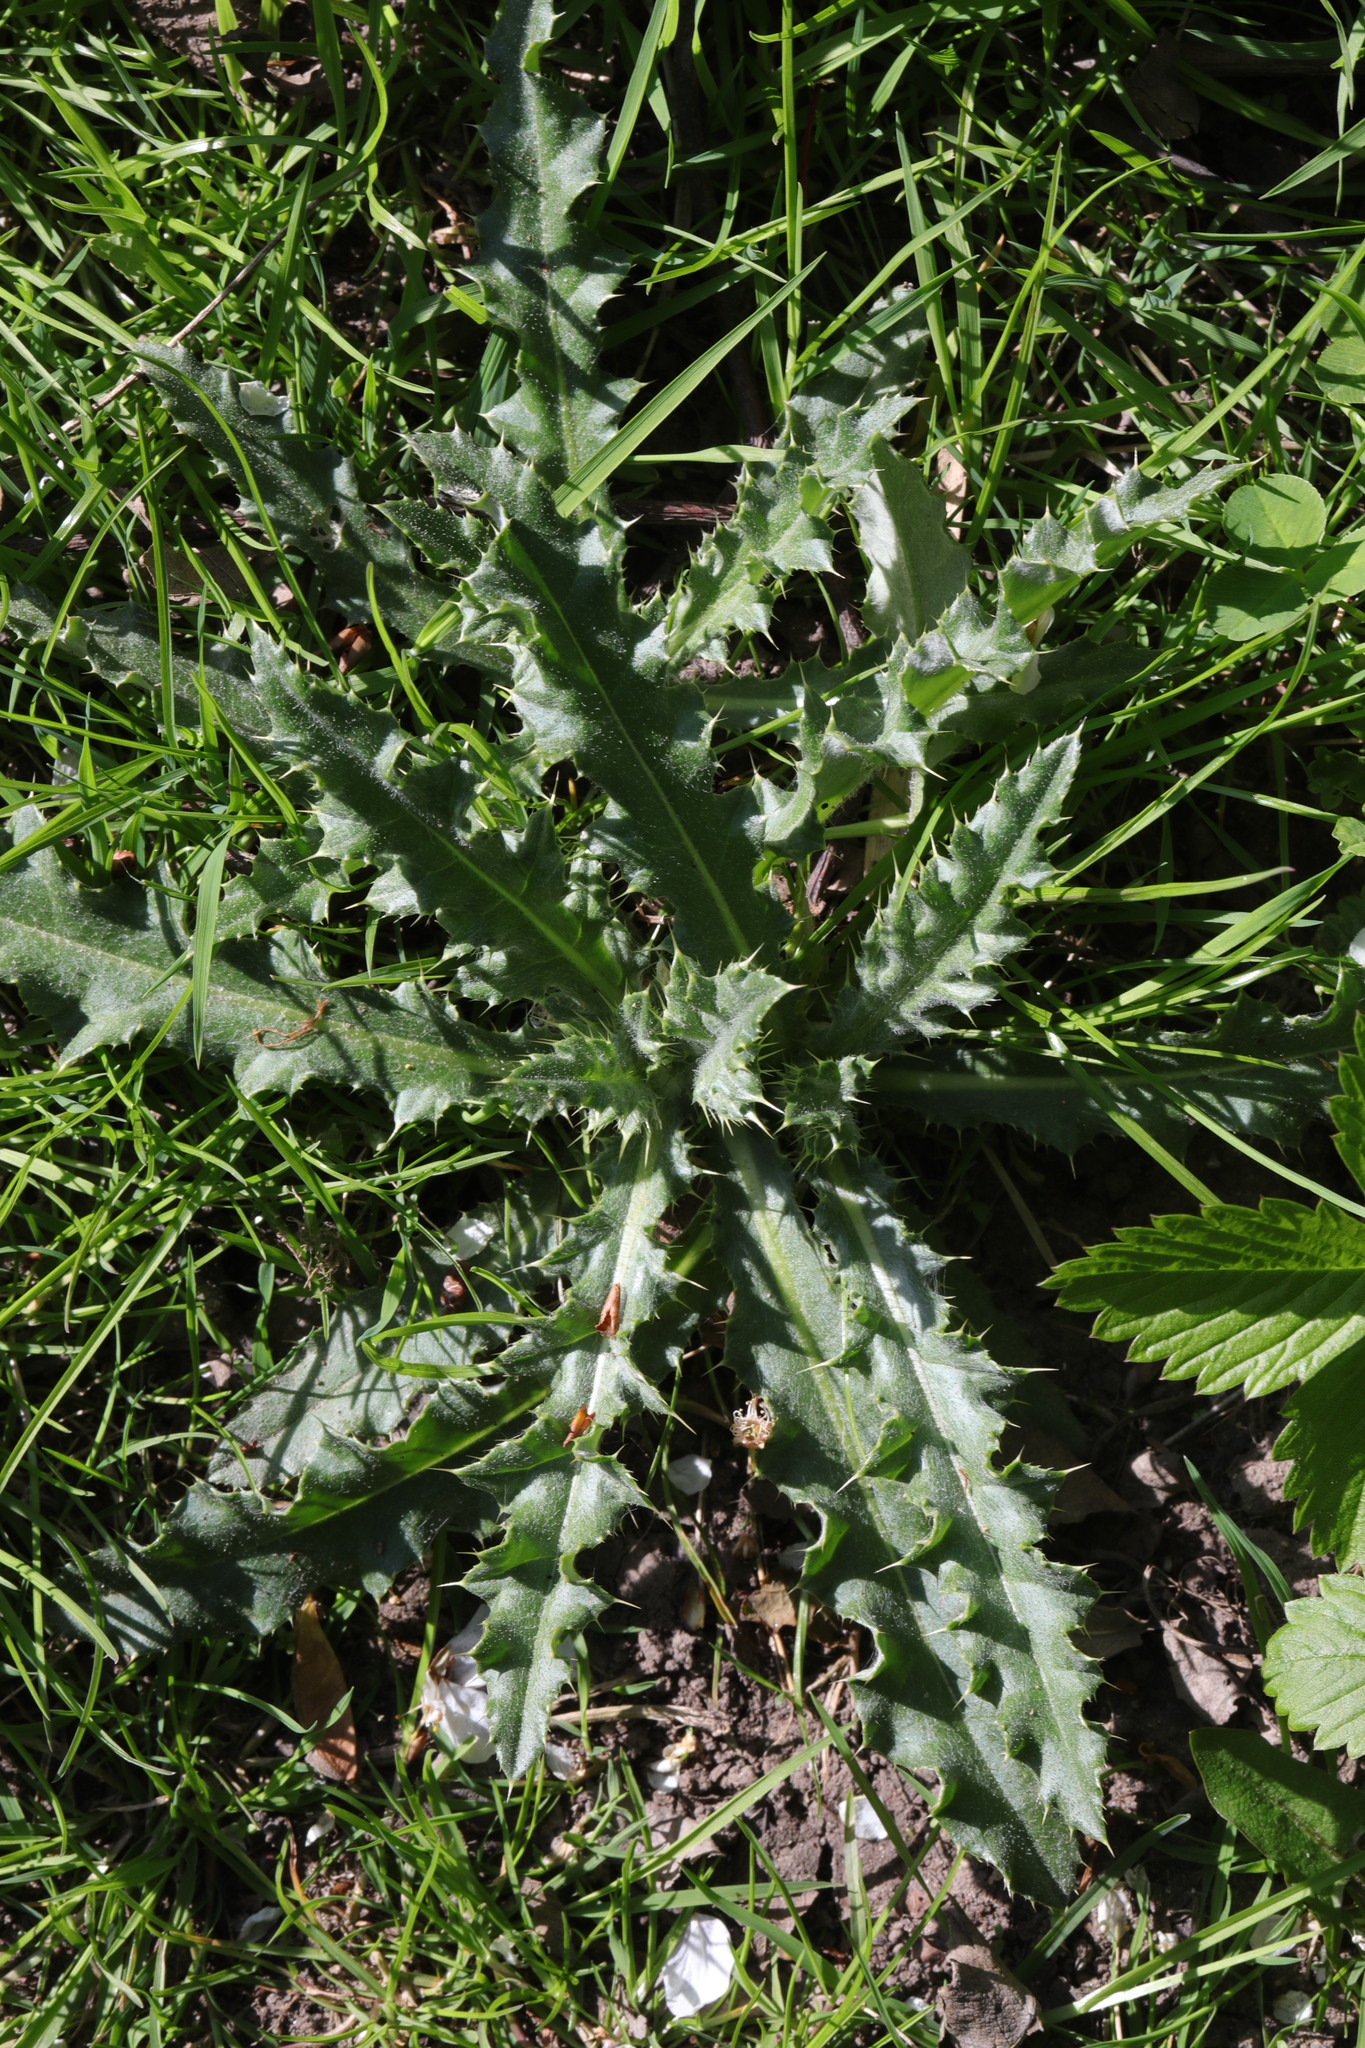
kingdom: Plantae
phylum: Tracheophyta
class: Magnoliopsida
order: Asterales
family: Asteraceae
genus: Cirsium
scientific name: Cirsium arvense
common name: Creeping thistle
